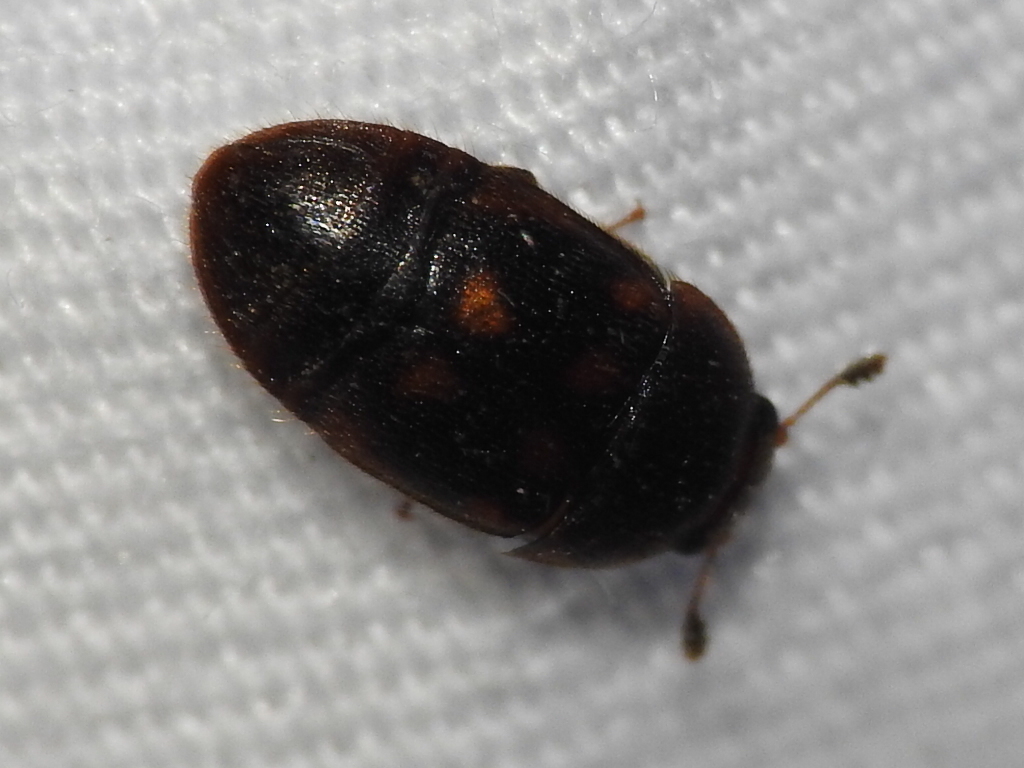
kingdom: Animalia
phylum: Arthropoda
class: Insecta
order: Coleoptera
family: Nitidulidae
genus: Colopterus
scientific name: Colopterus maculatus
